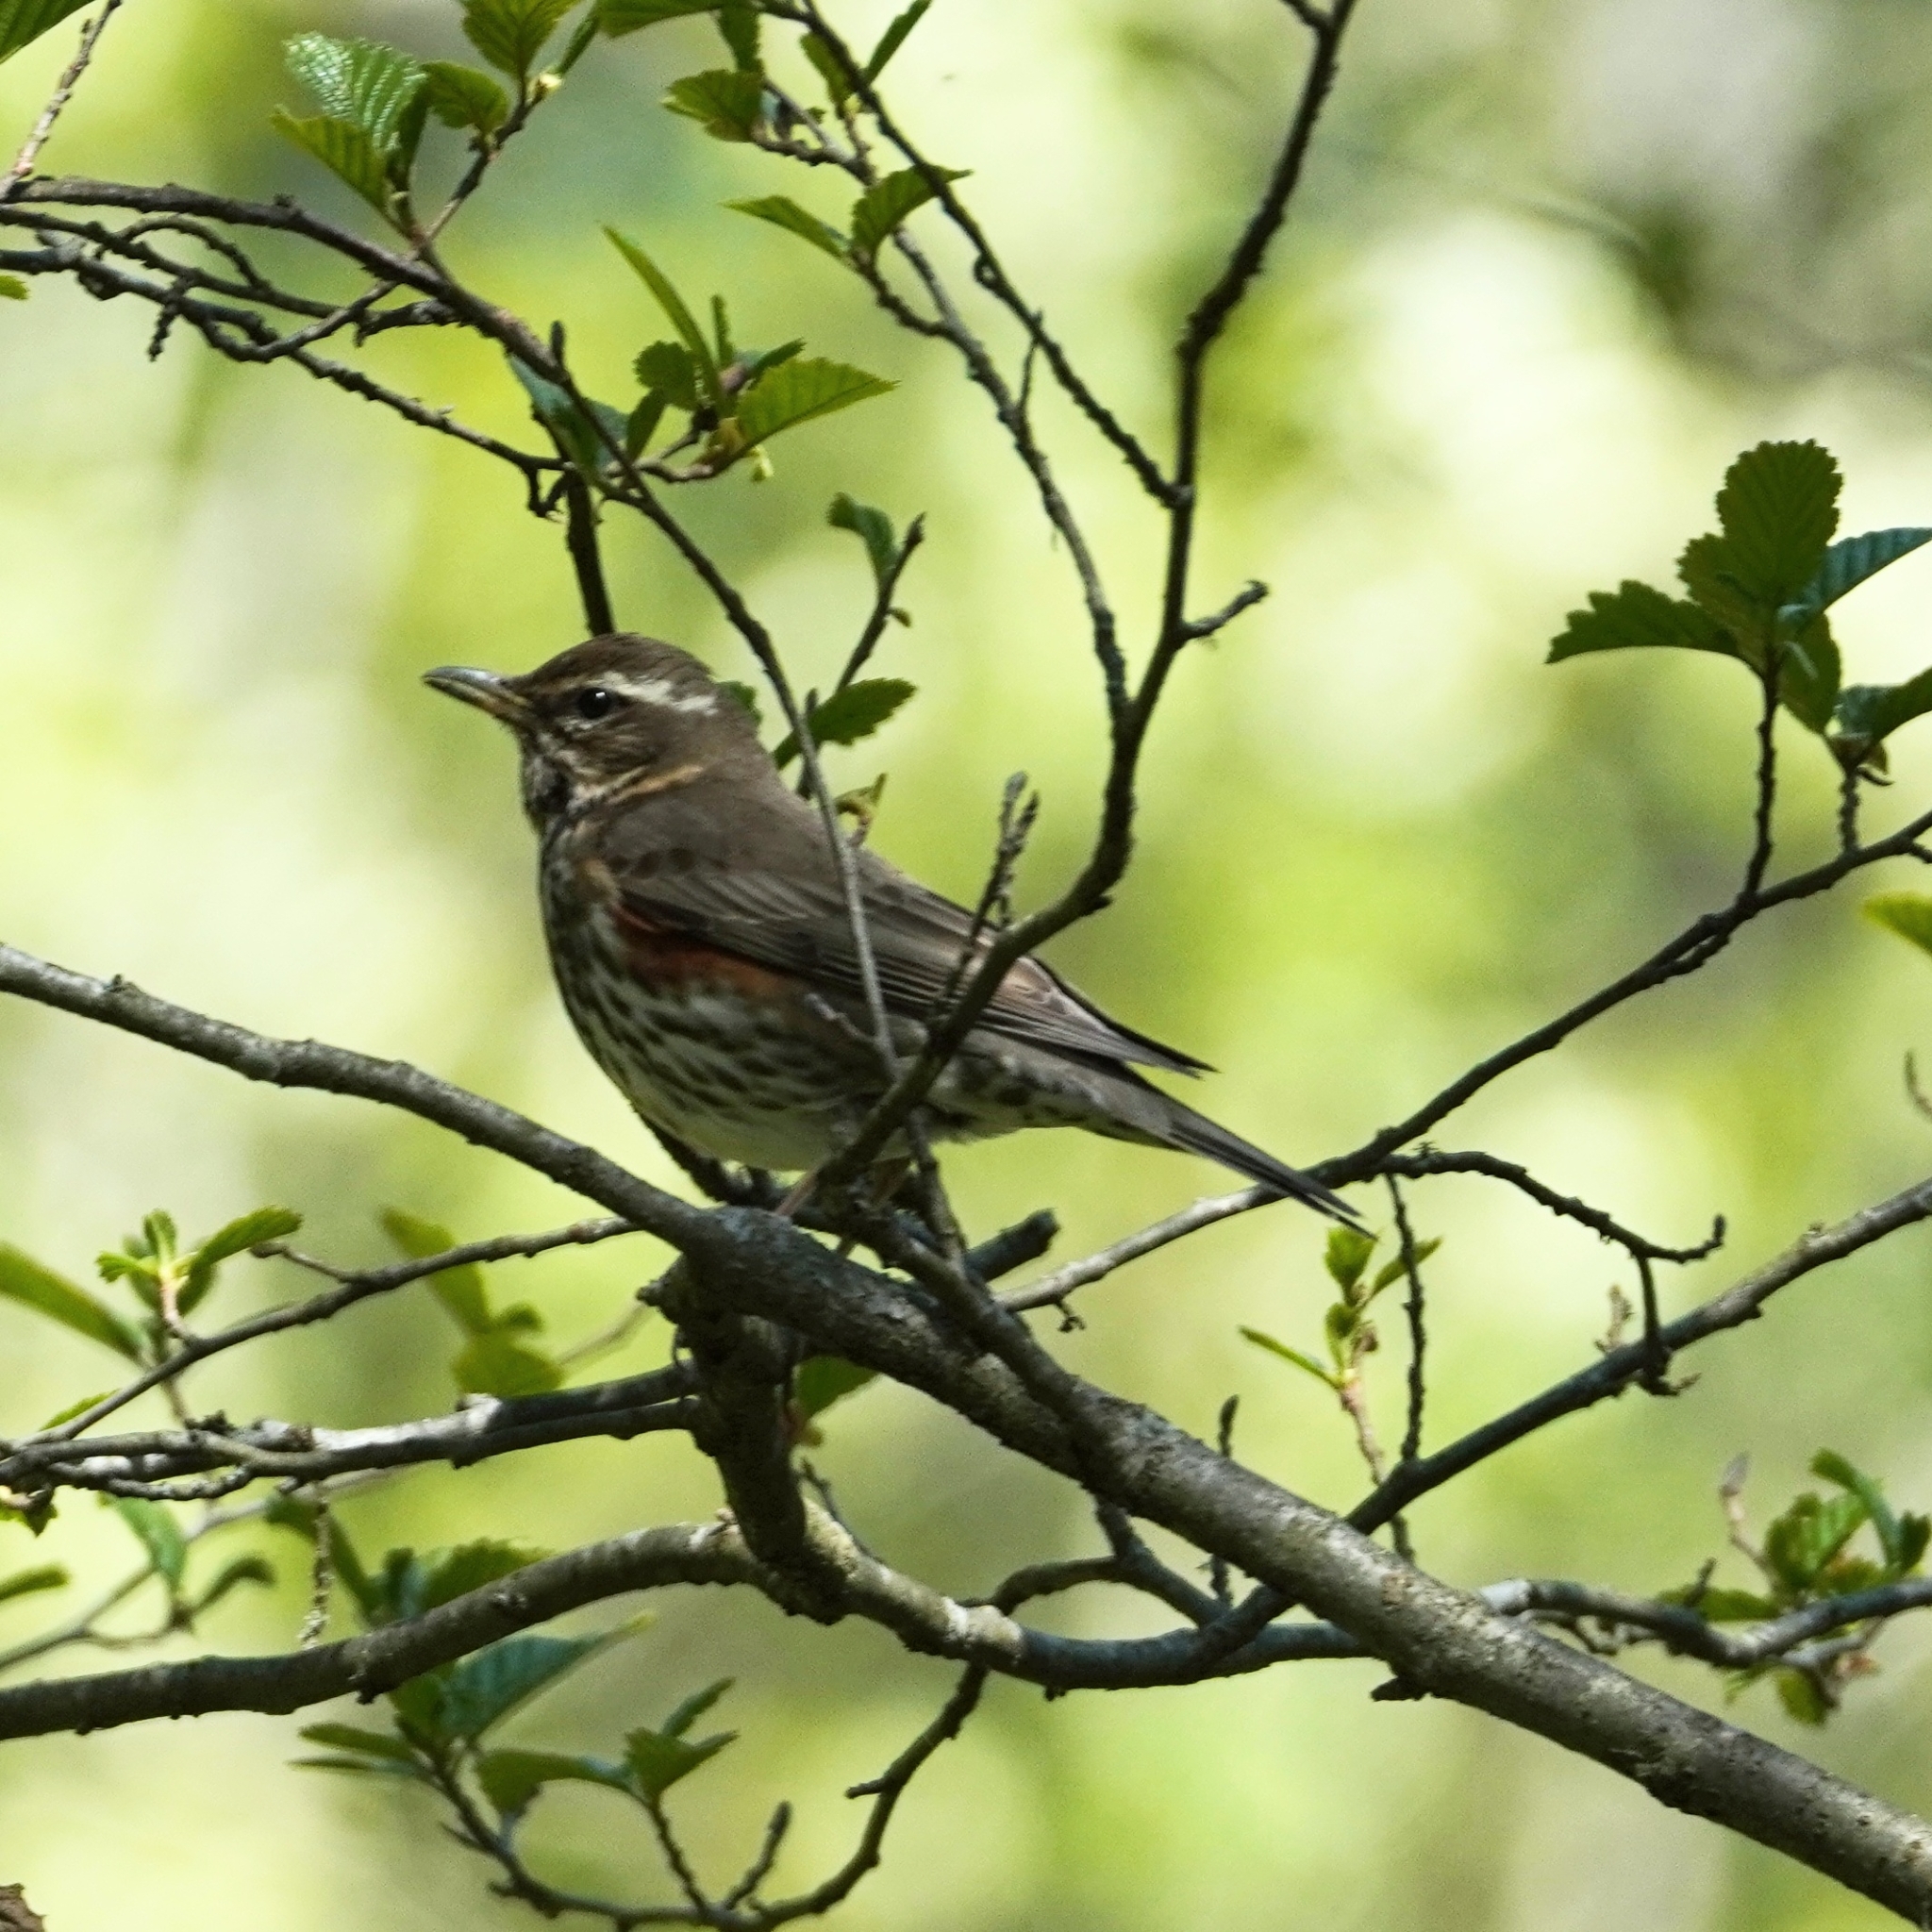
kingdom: Animalia
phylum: Chordata
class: Aves
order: Passeriformes
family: Turdidae
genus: Turdus
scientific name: Turdus iliacus
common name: Redwing
